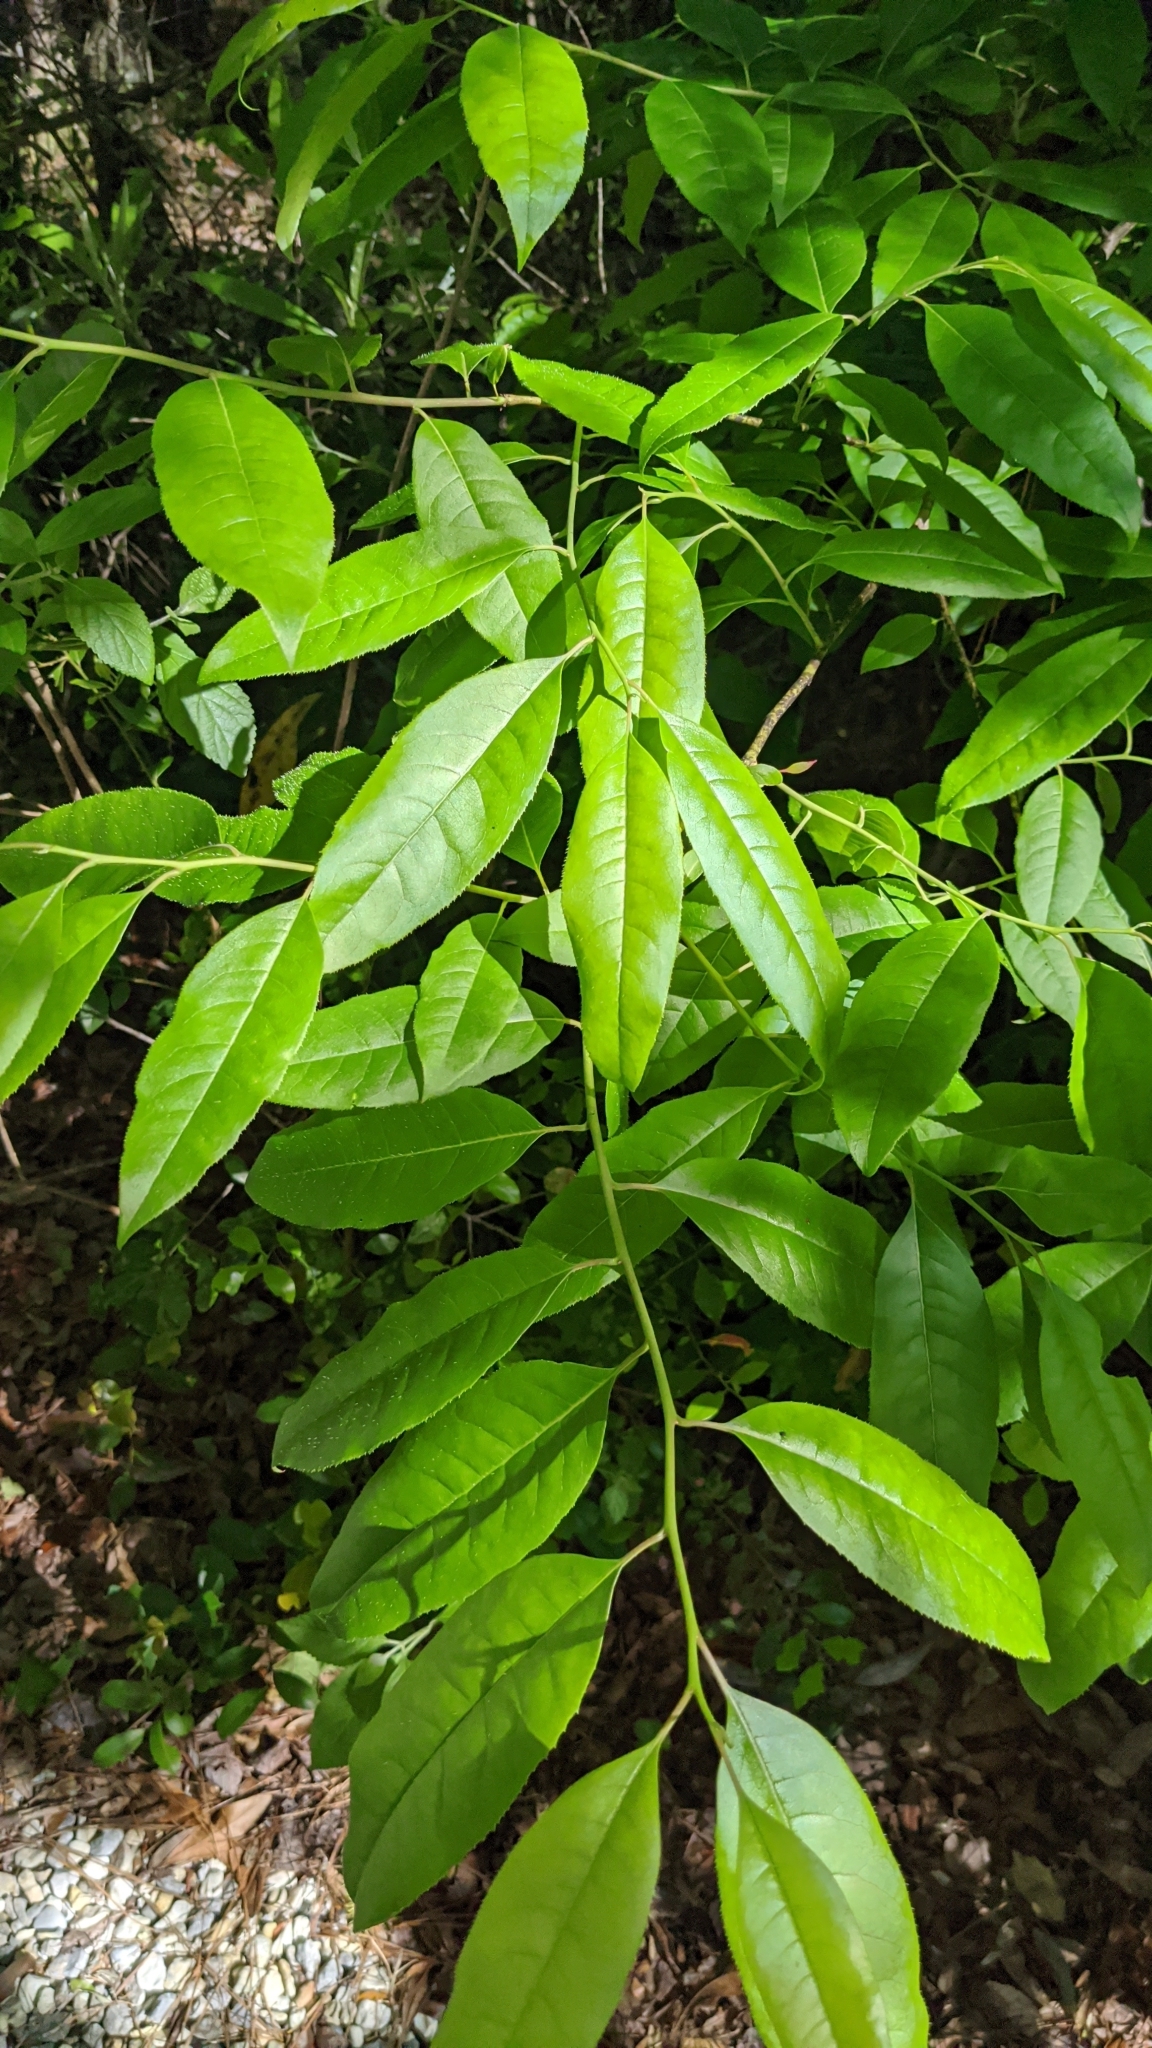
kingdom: Plantae
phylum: Tracheophyta
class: Magnoliopsida
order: Ericales
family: Ericaceae
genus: Oxydendrum
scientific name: Oxydendrum arboreum
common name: Sourwood
